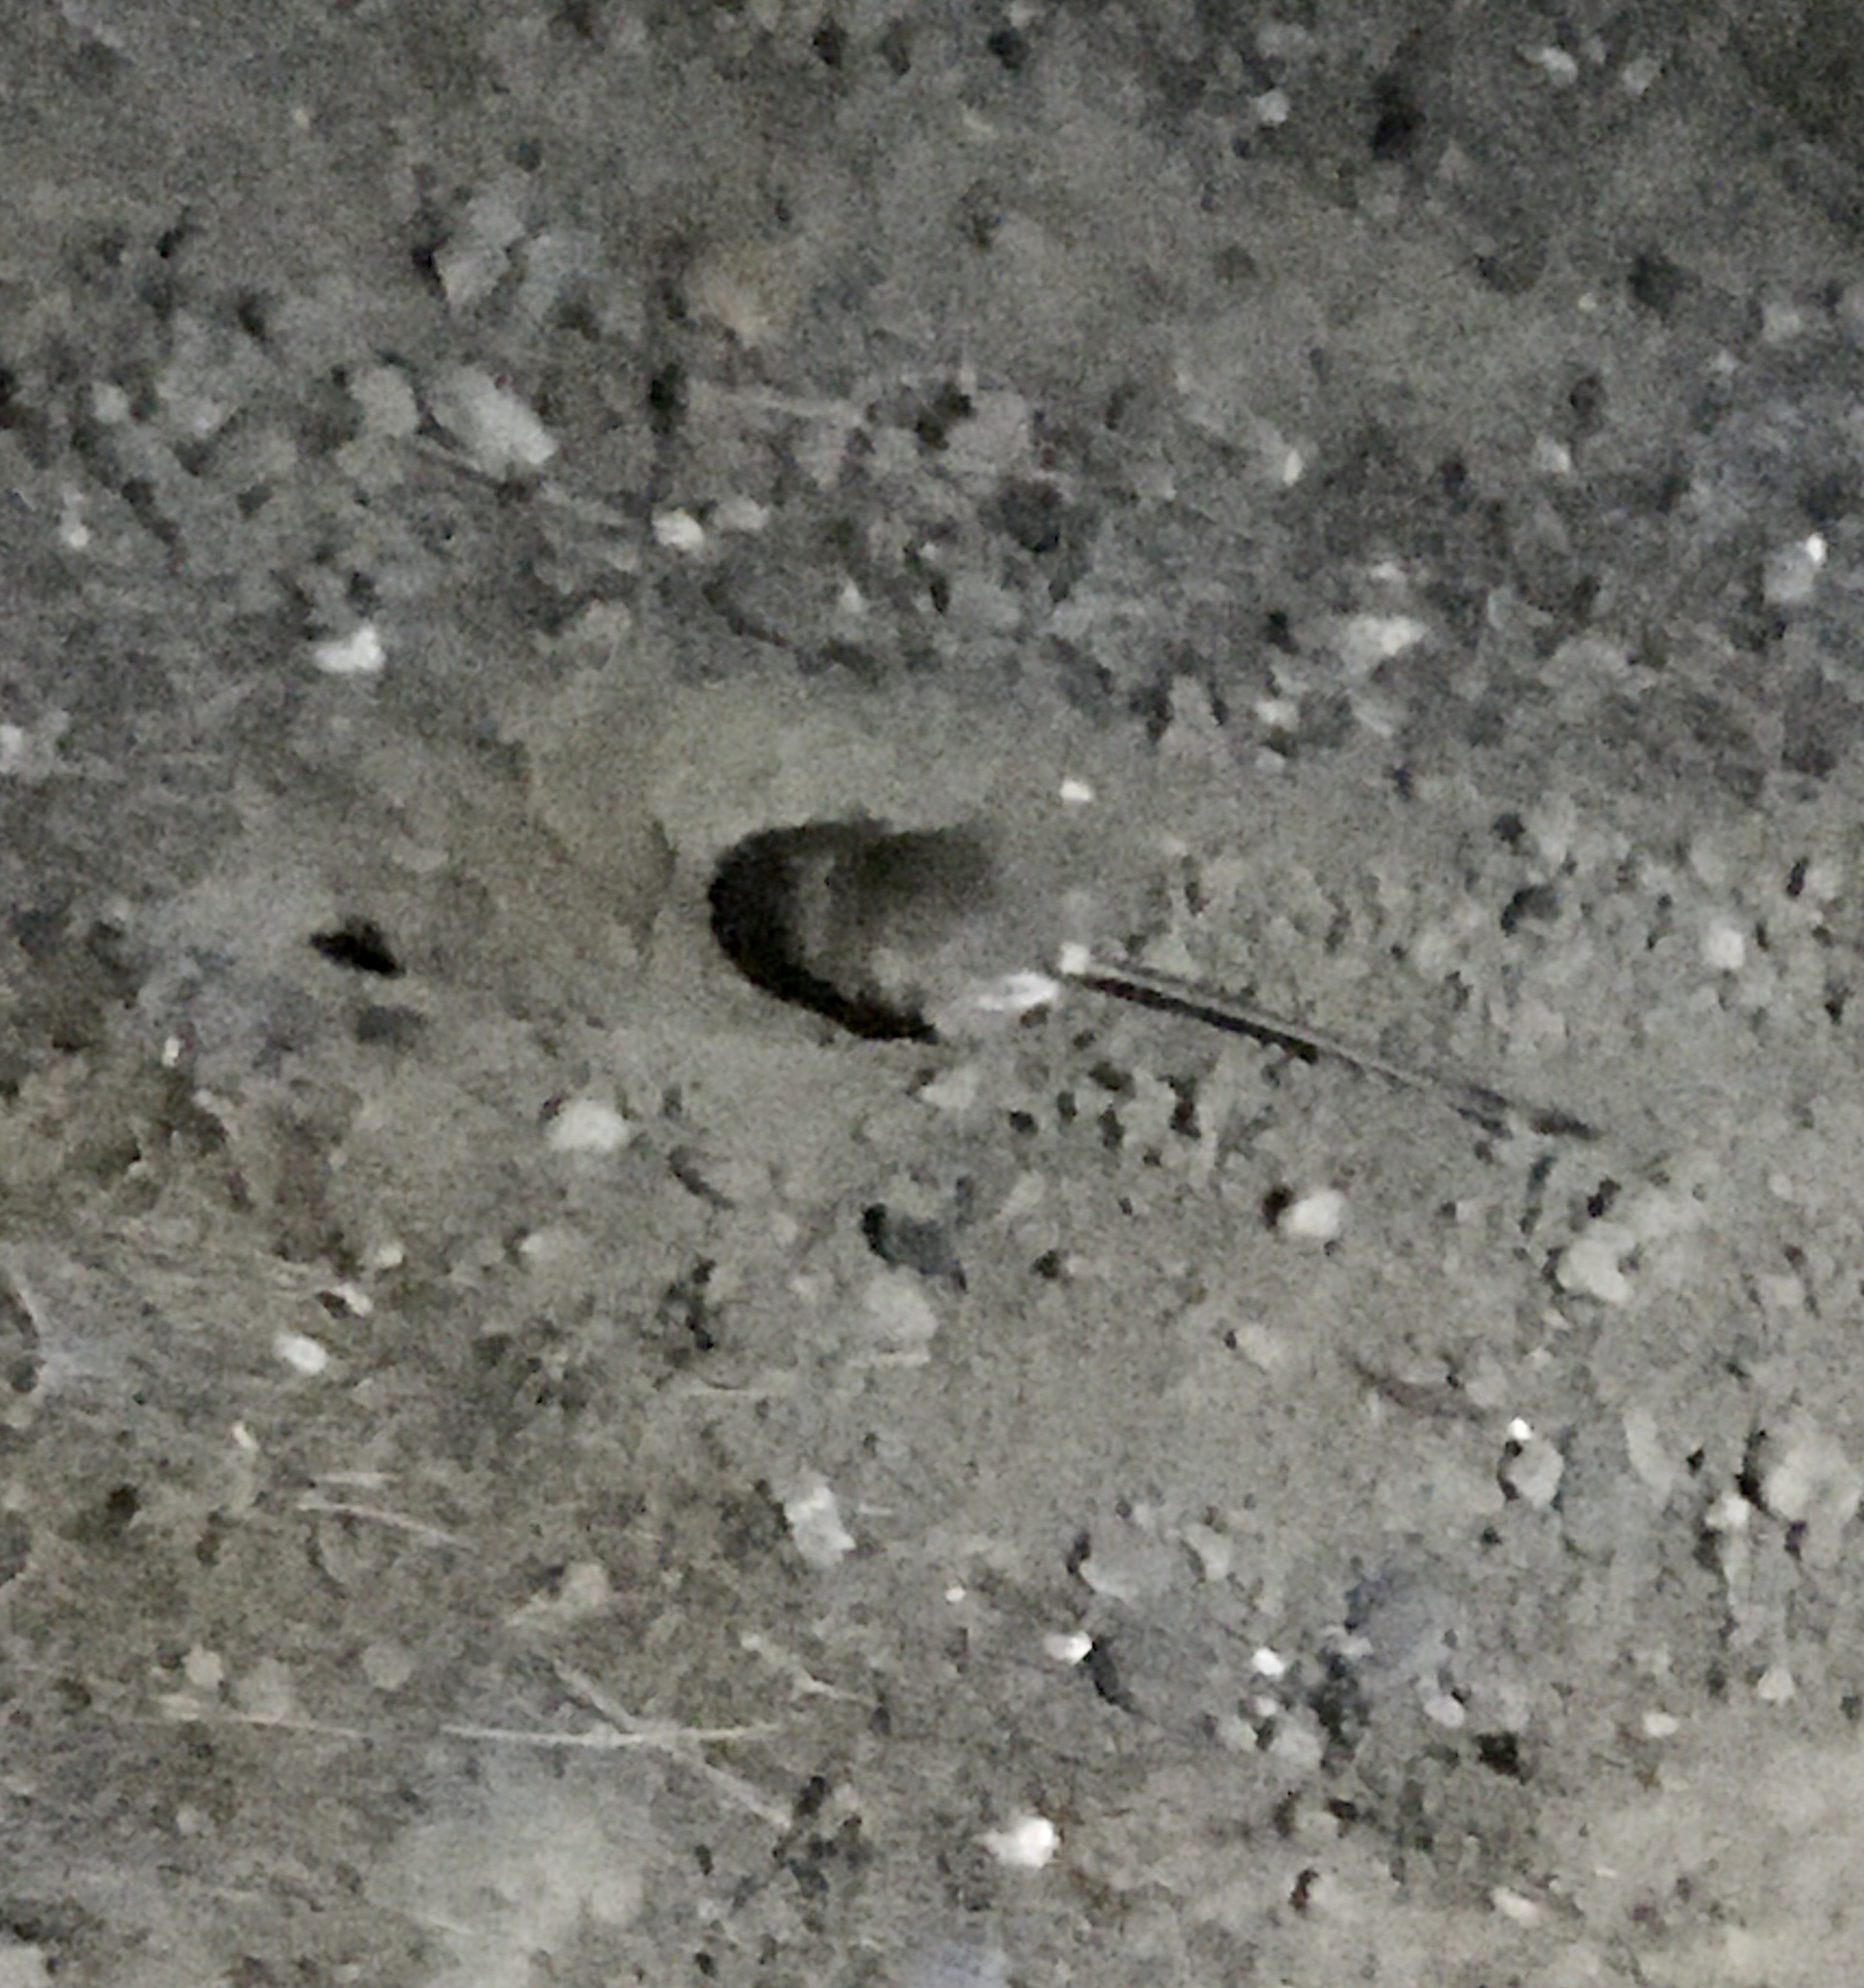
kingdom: Animalia
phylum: Chordata
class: Mammalia
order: Rodentia
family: Heteromyidae
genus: Dipodomys
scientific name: Dipodomys californicus
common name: California kangaroo rat
